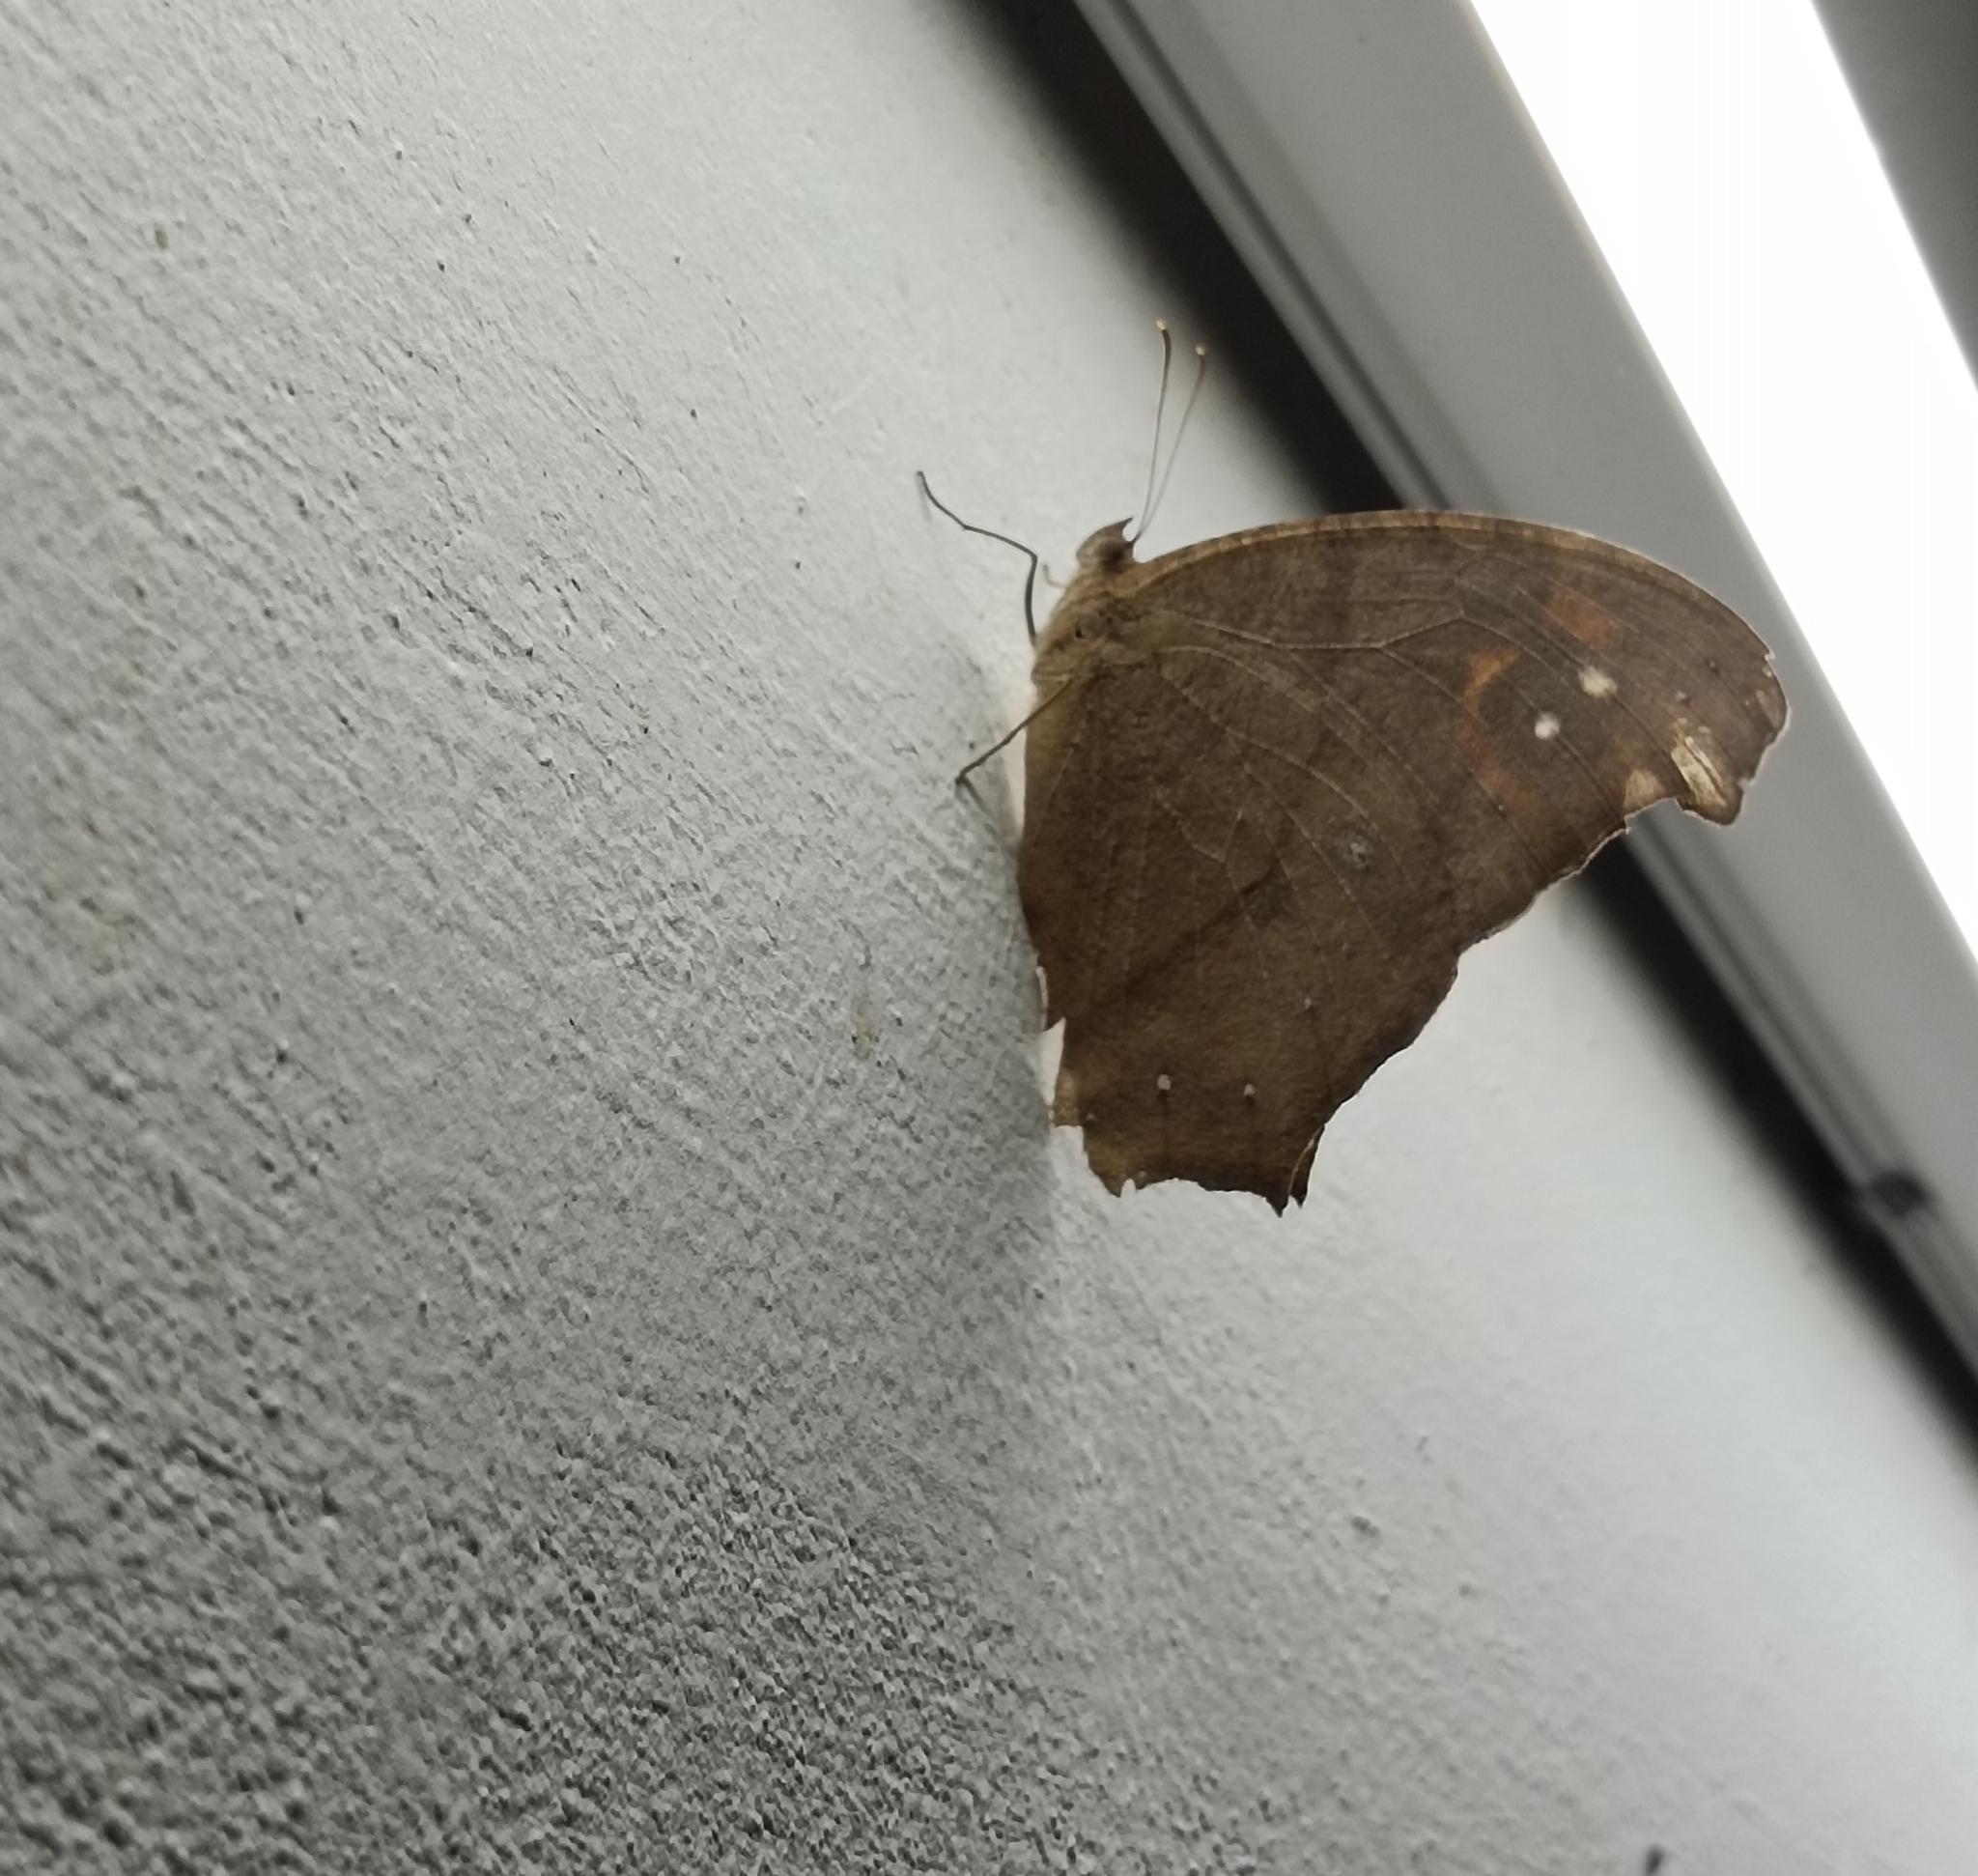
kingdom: Animalia
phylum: Arthropoda
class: Insecta
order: Lepidoptera
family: Nymphalidae
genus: Melanitis
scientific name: Melanitis leda
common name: Twilight brown
